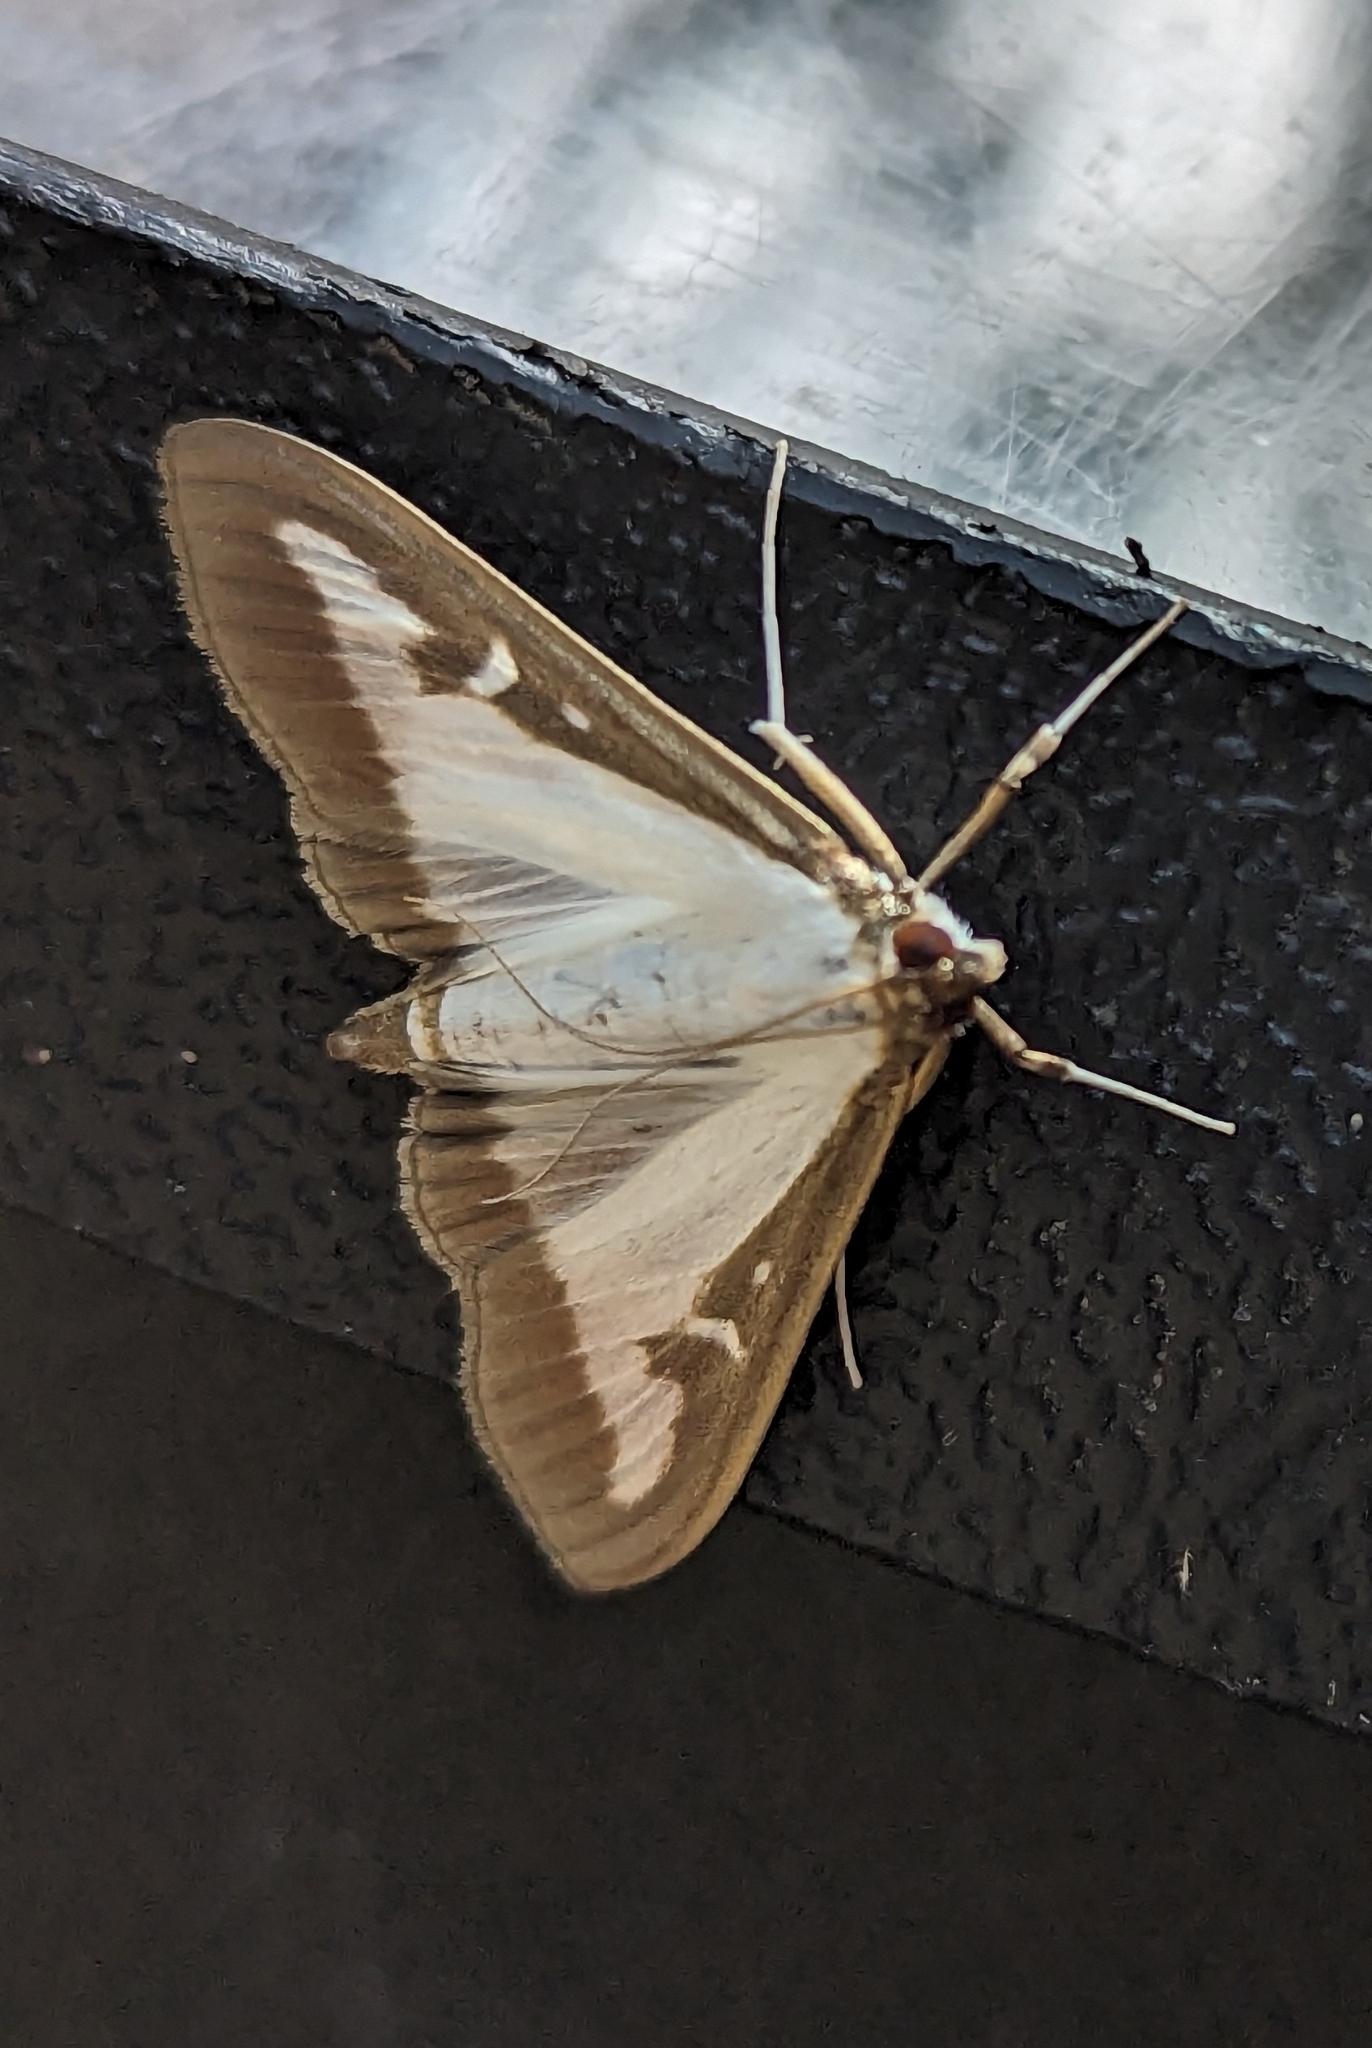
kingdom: Animalia
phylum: Arthropoda
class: Insecta
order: Lepidoptera
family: Crambidae
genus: Cydalima
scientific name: Cydalima perspectalis
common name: Box tree moth
